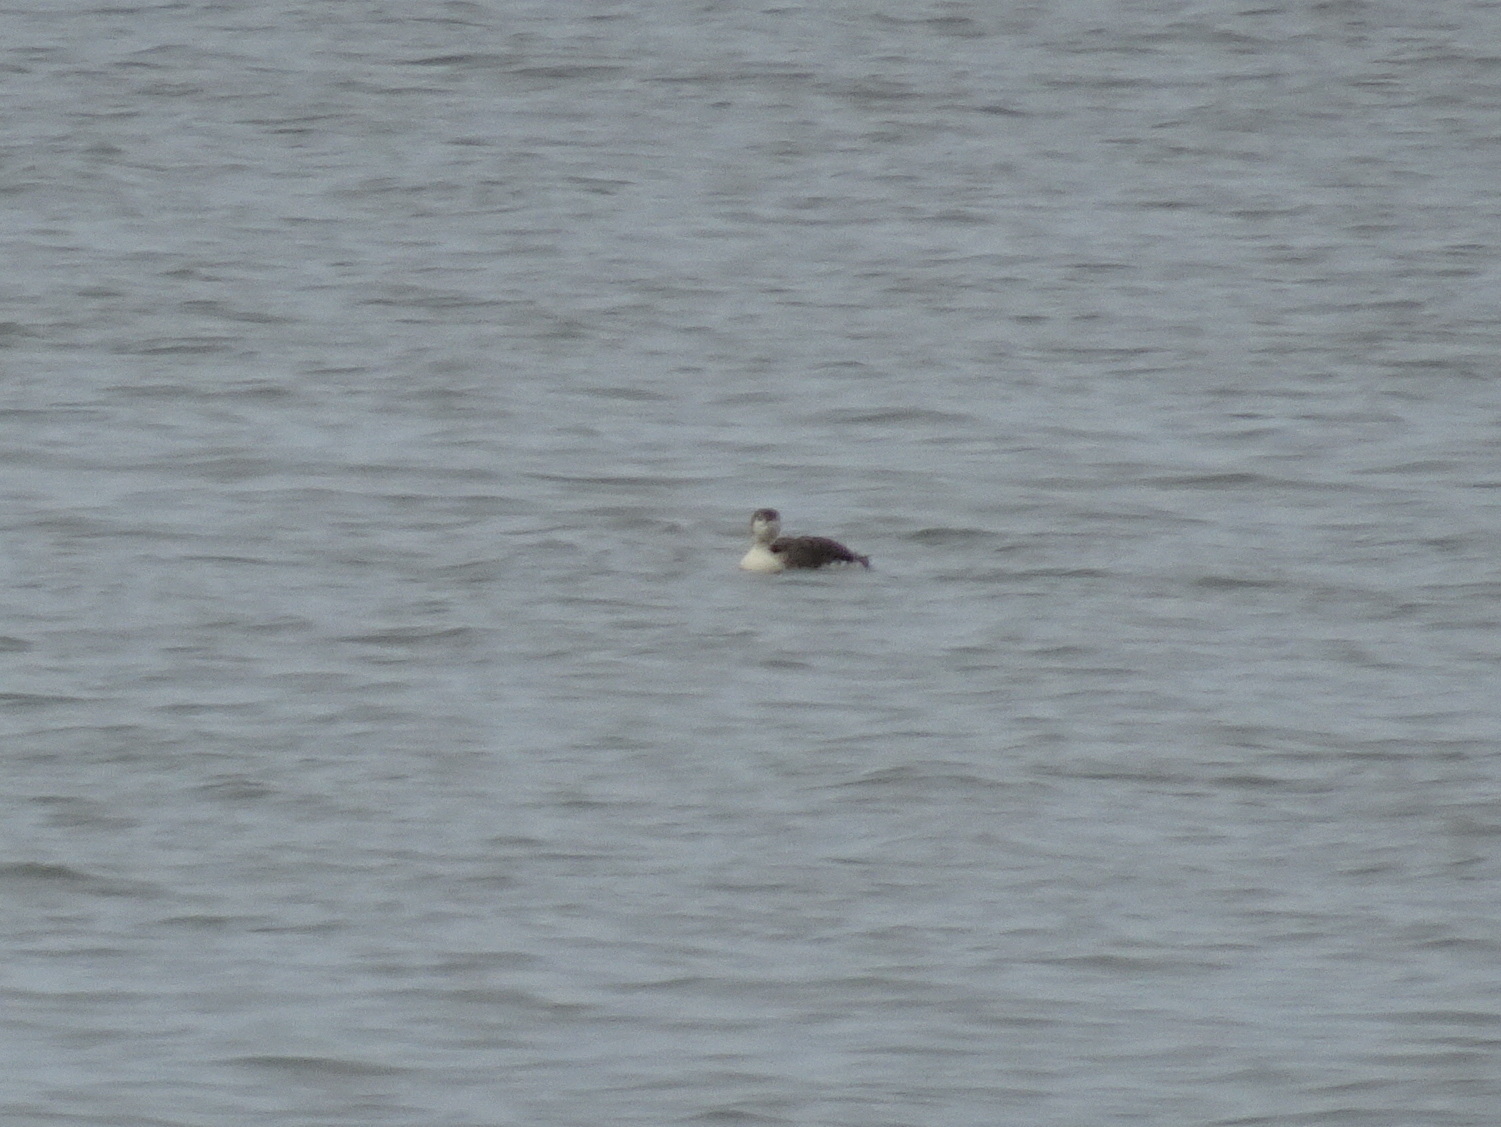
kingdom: Animalia
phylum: Chordata
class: Aves
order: Gaviiformes
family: Gaviidae
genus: Gavia
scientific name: Gavia immer
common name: Common loon
